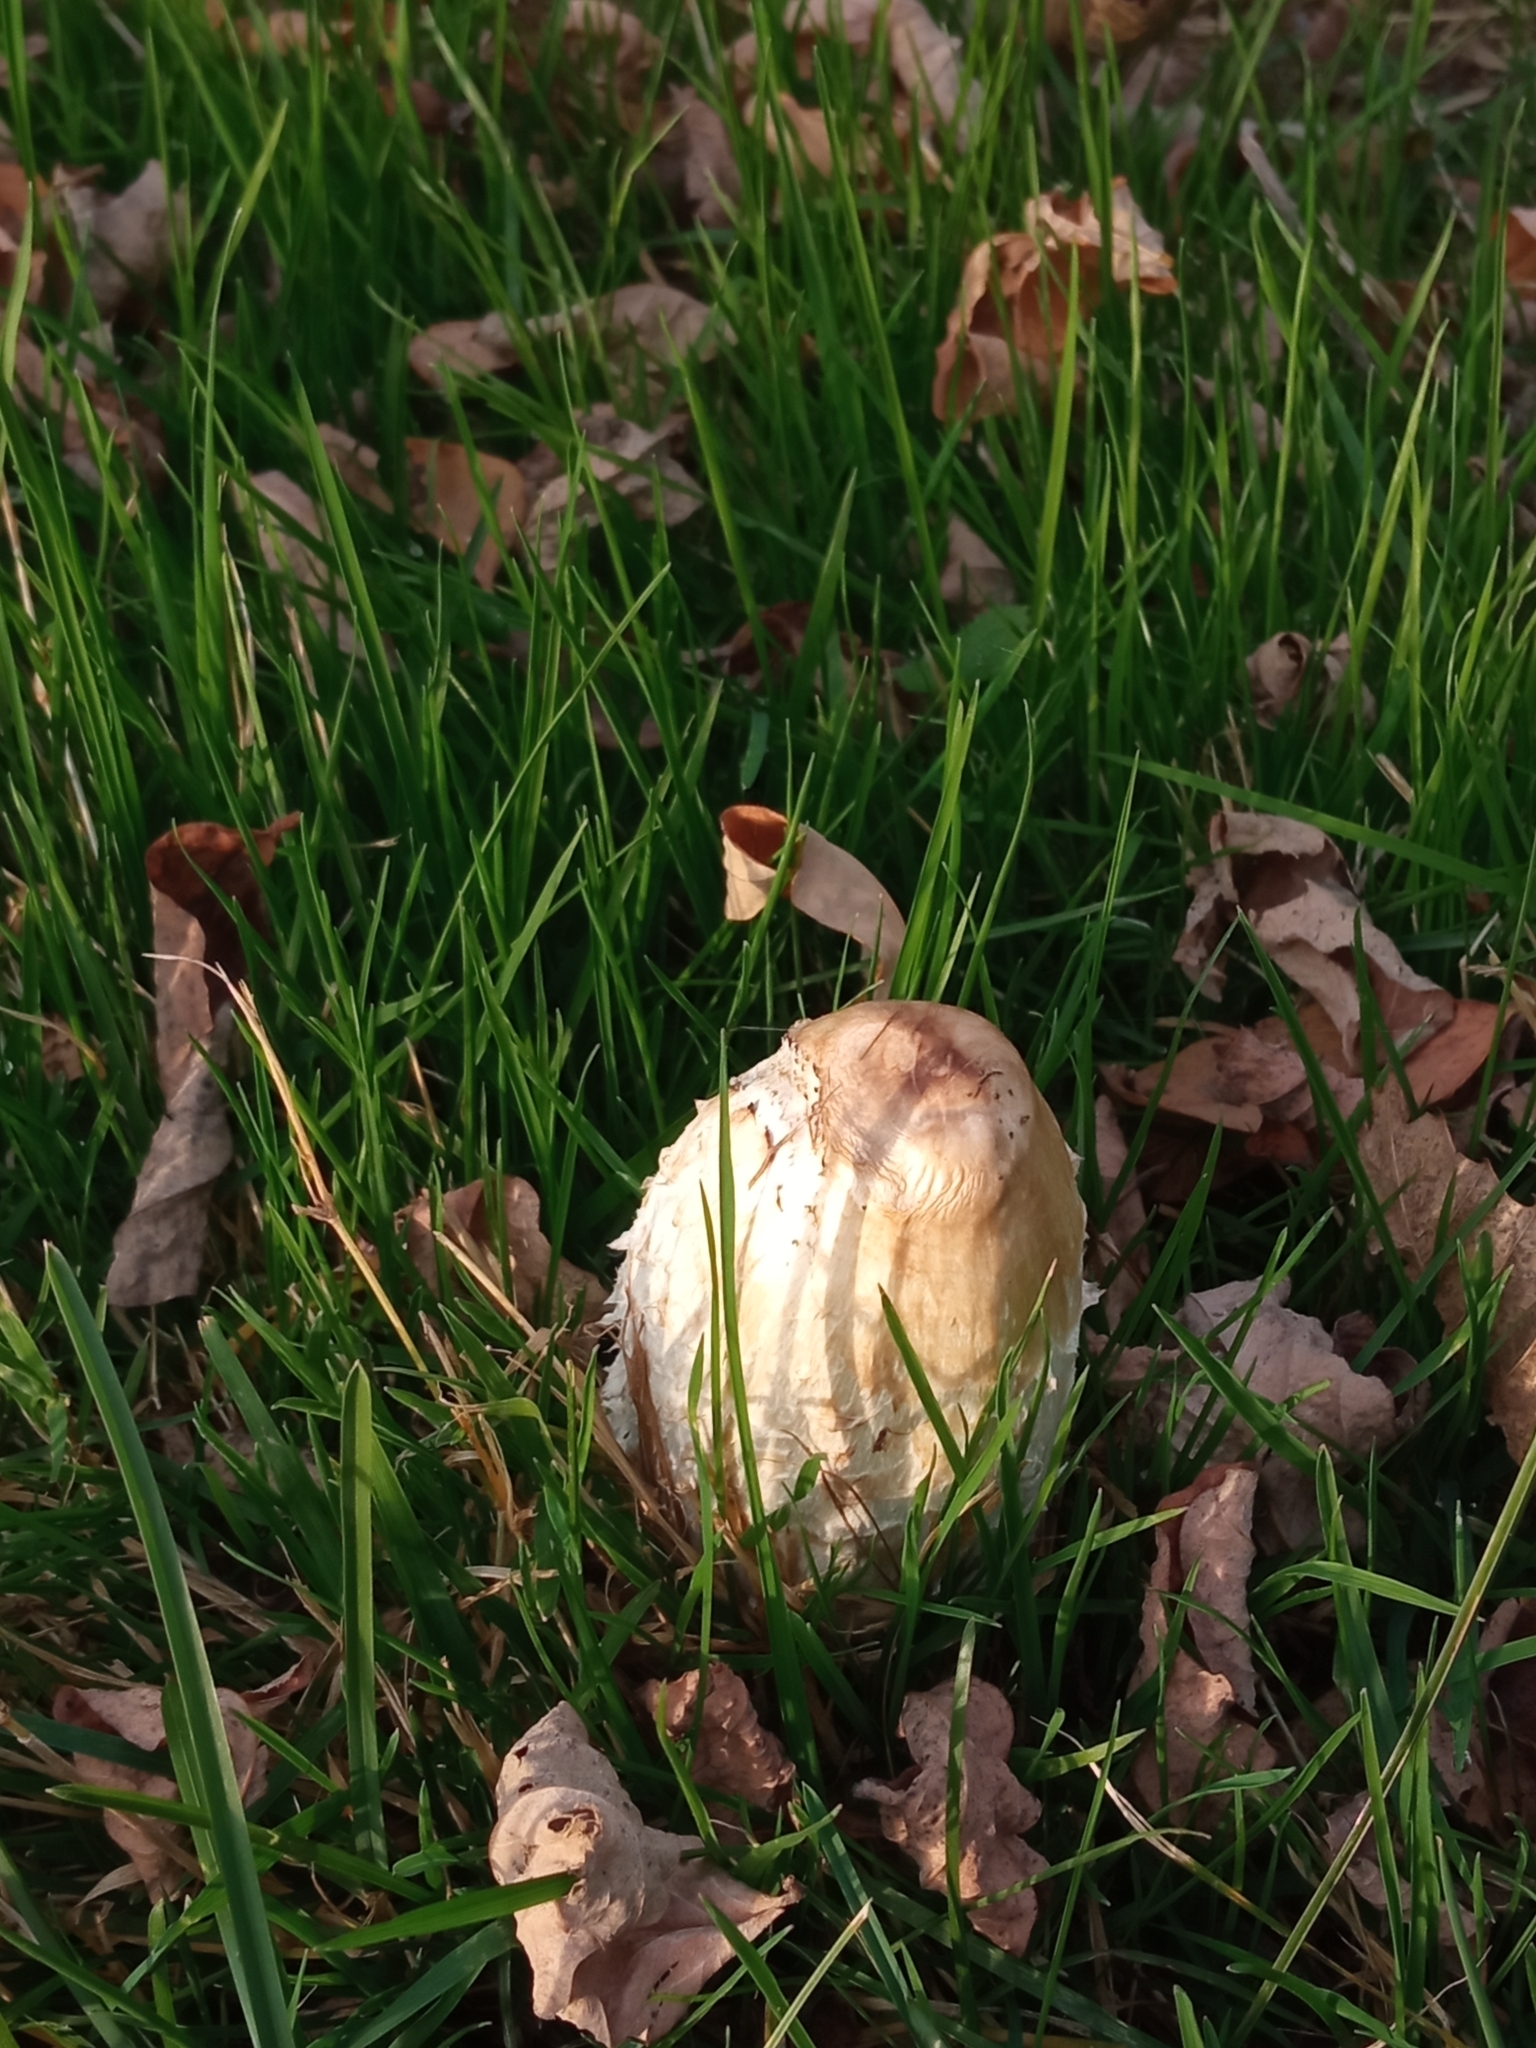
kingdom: Fungi
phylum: Basidiomycota
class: Agaricomycetes
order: Agaricales
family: Agaricaceae
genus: Coprinus
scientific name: Coprinus comatus
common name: Lawyer's wig
